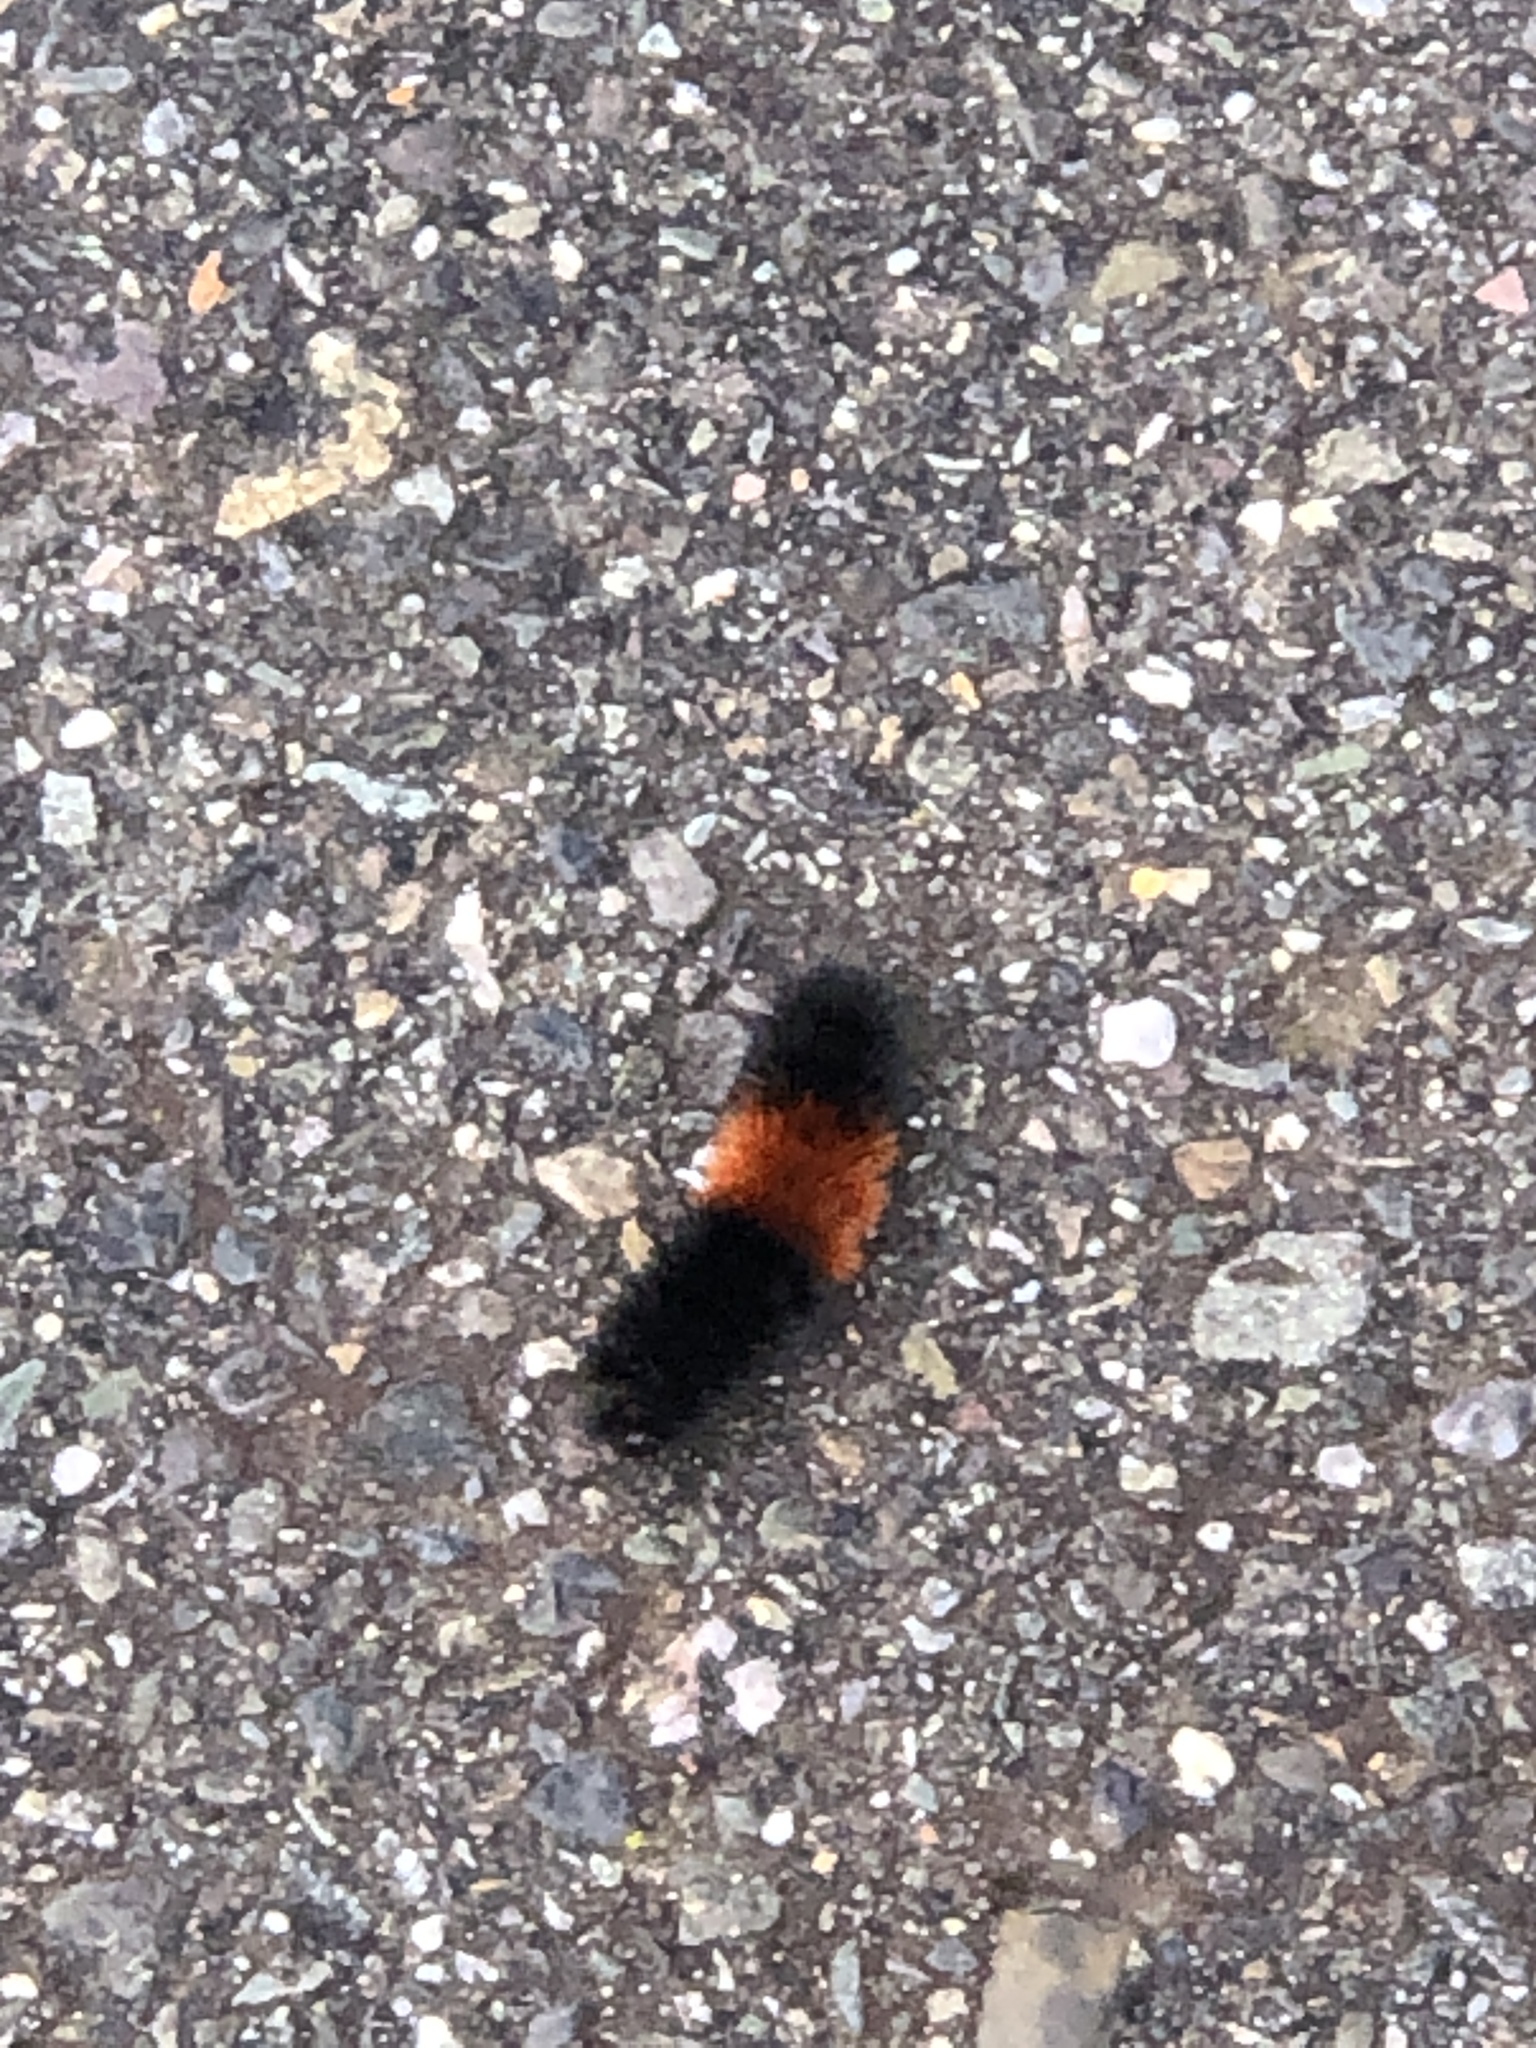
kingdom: Animalia
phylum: Arthropoda
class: Insecta
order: Lepidoptera
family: Erebidae
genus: Pyrrharctia
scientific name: Pyrrharctia isabella
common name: Isabella tiger moth
